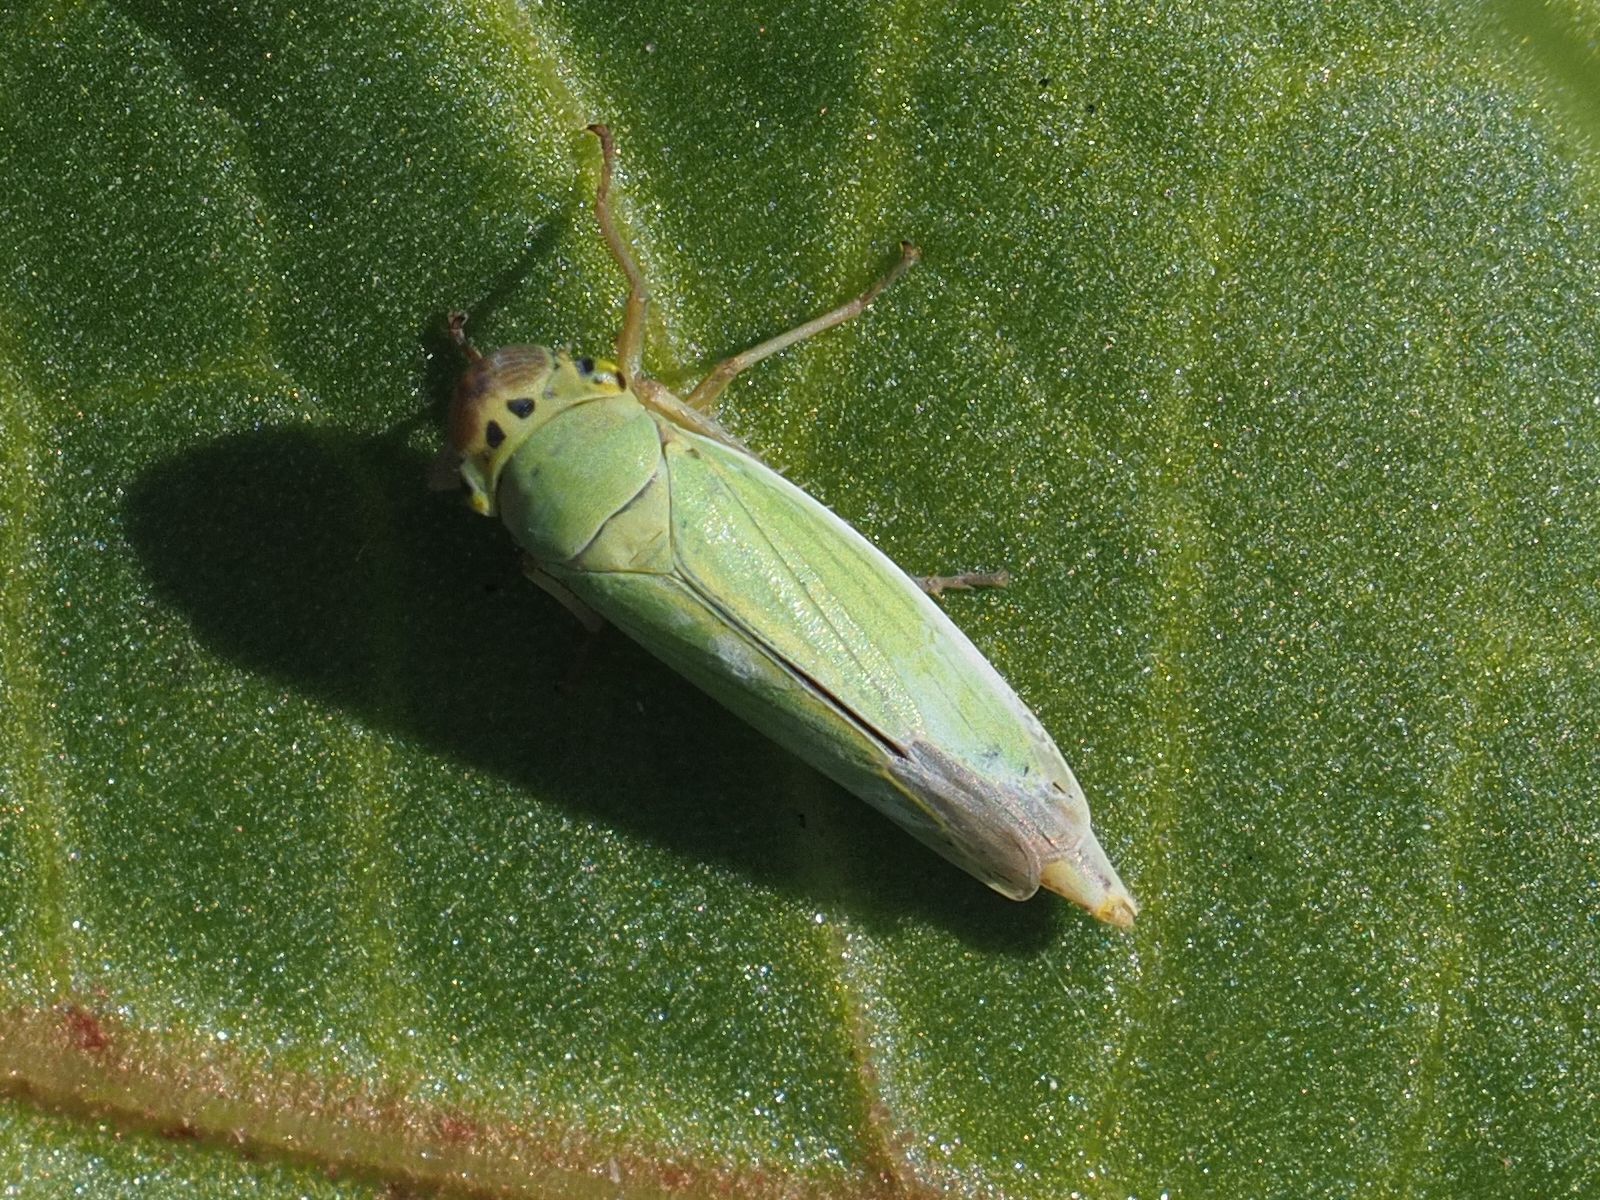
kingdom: Animalia
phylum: Arthropoda
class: Insecta
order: Hemiptera
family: Cicadellidae
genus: Cicadella
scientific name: Cicadella viridis
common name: Leafhopper
